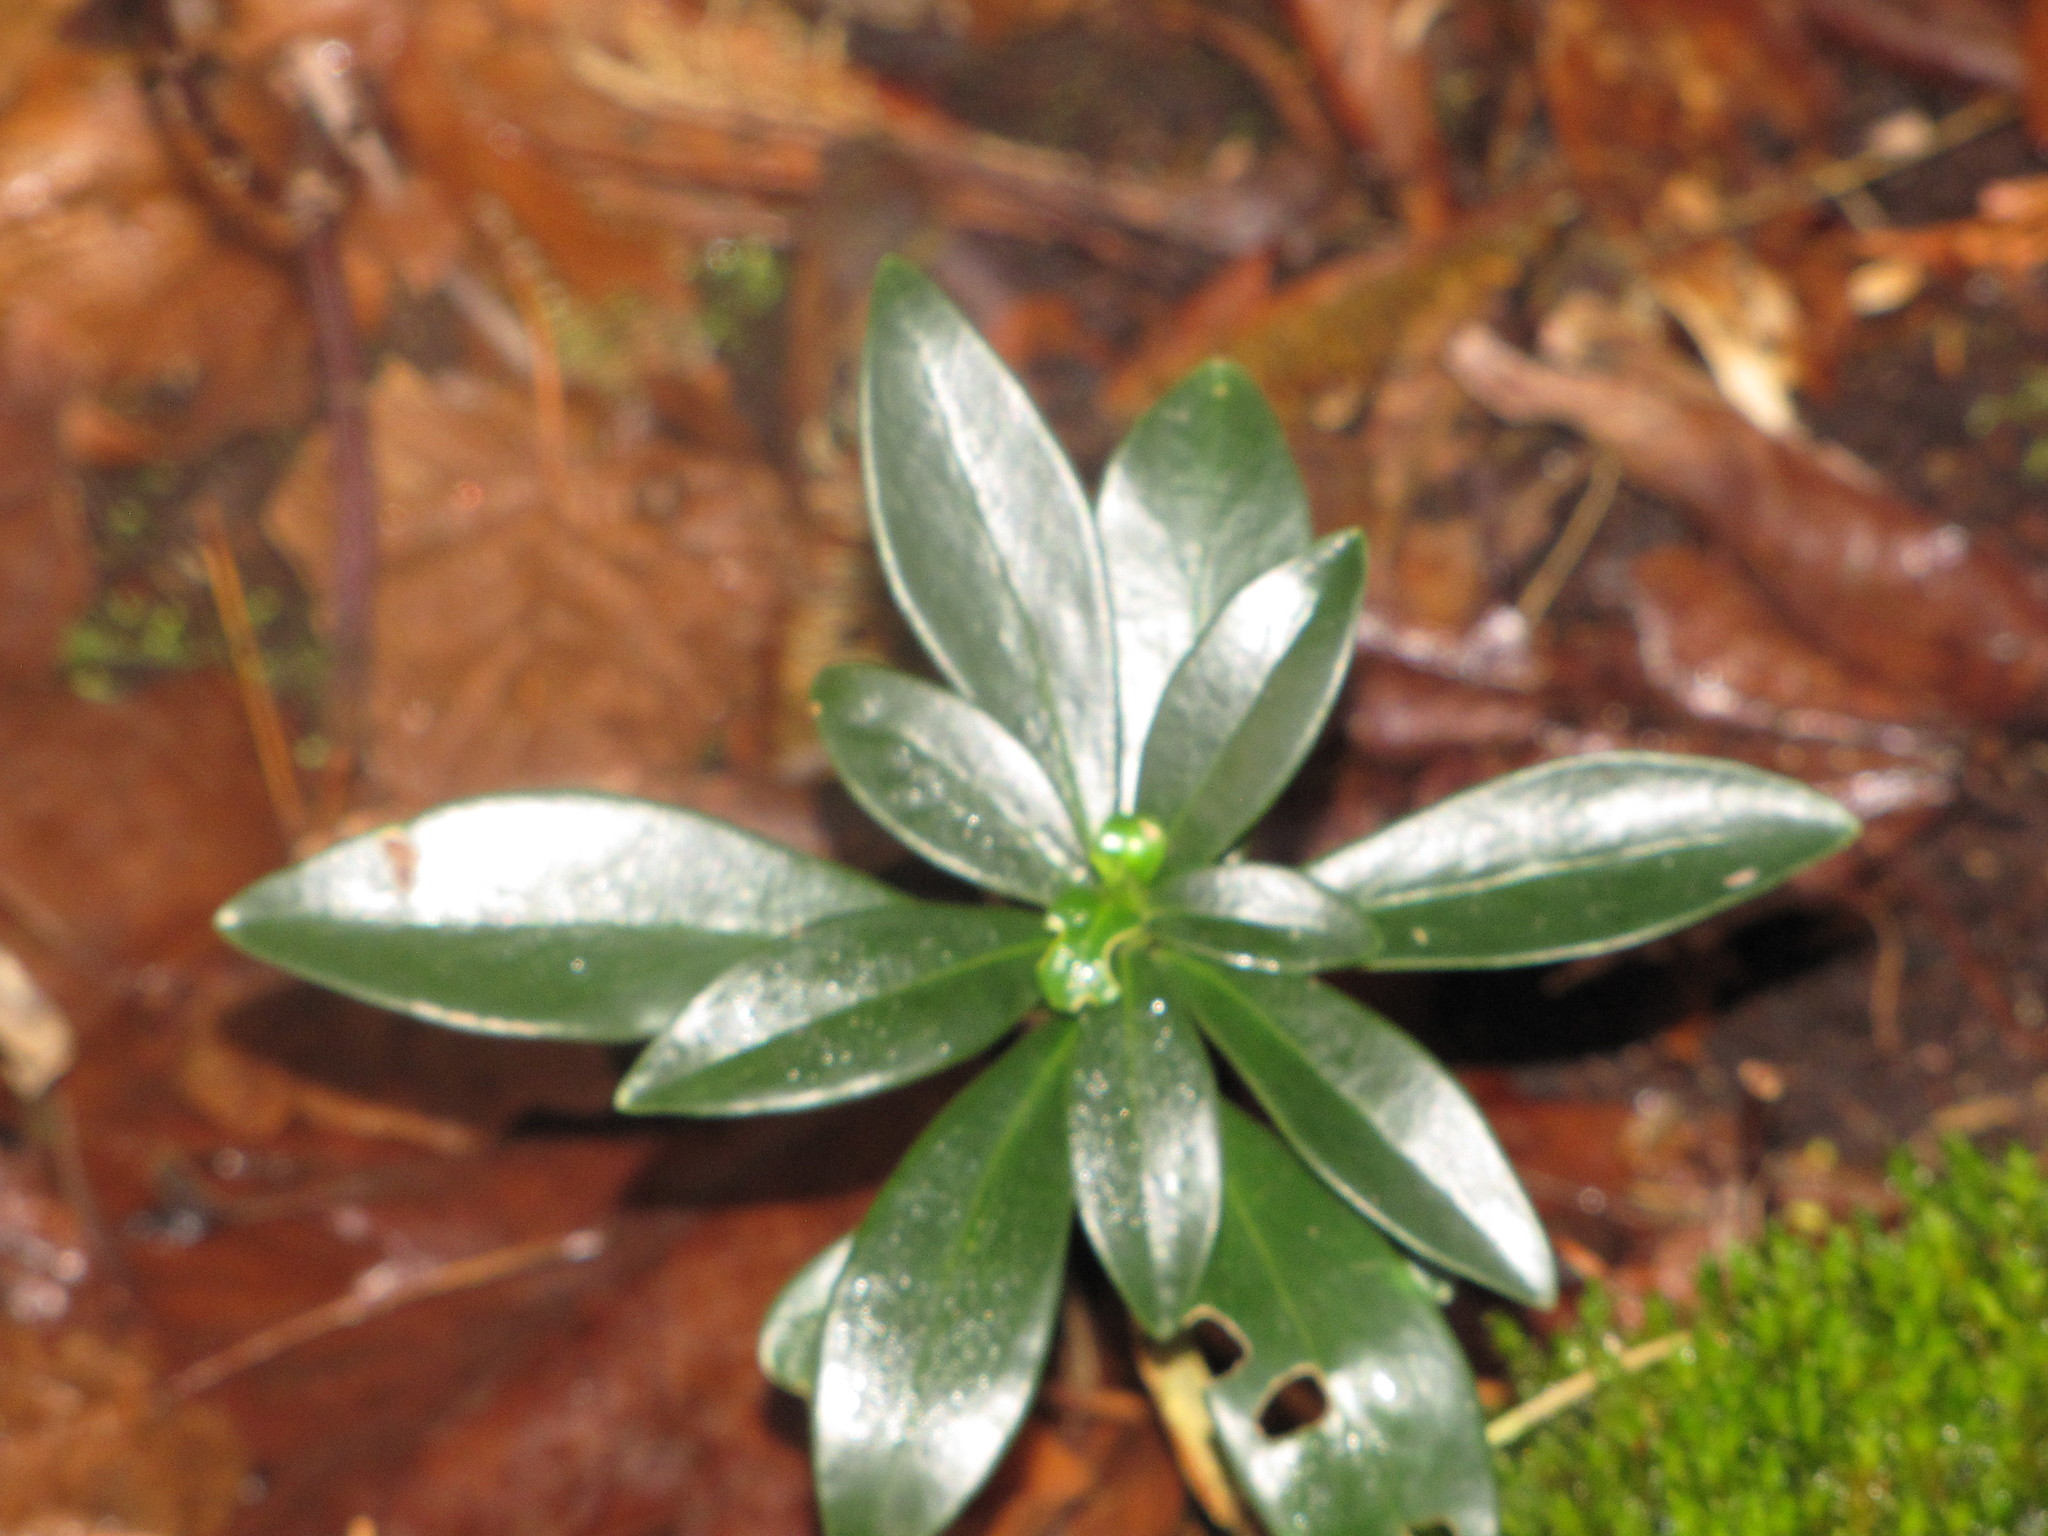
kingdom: Plantae
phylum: Tracheophyta
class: Magnoliopsida
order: Malvales
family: Thymelaeaceae
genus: Daphne
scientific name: Daphne laureola
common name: Spurge-laurel
